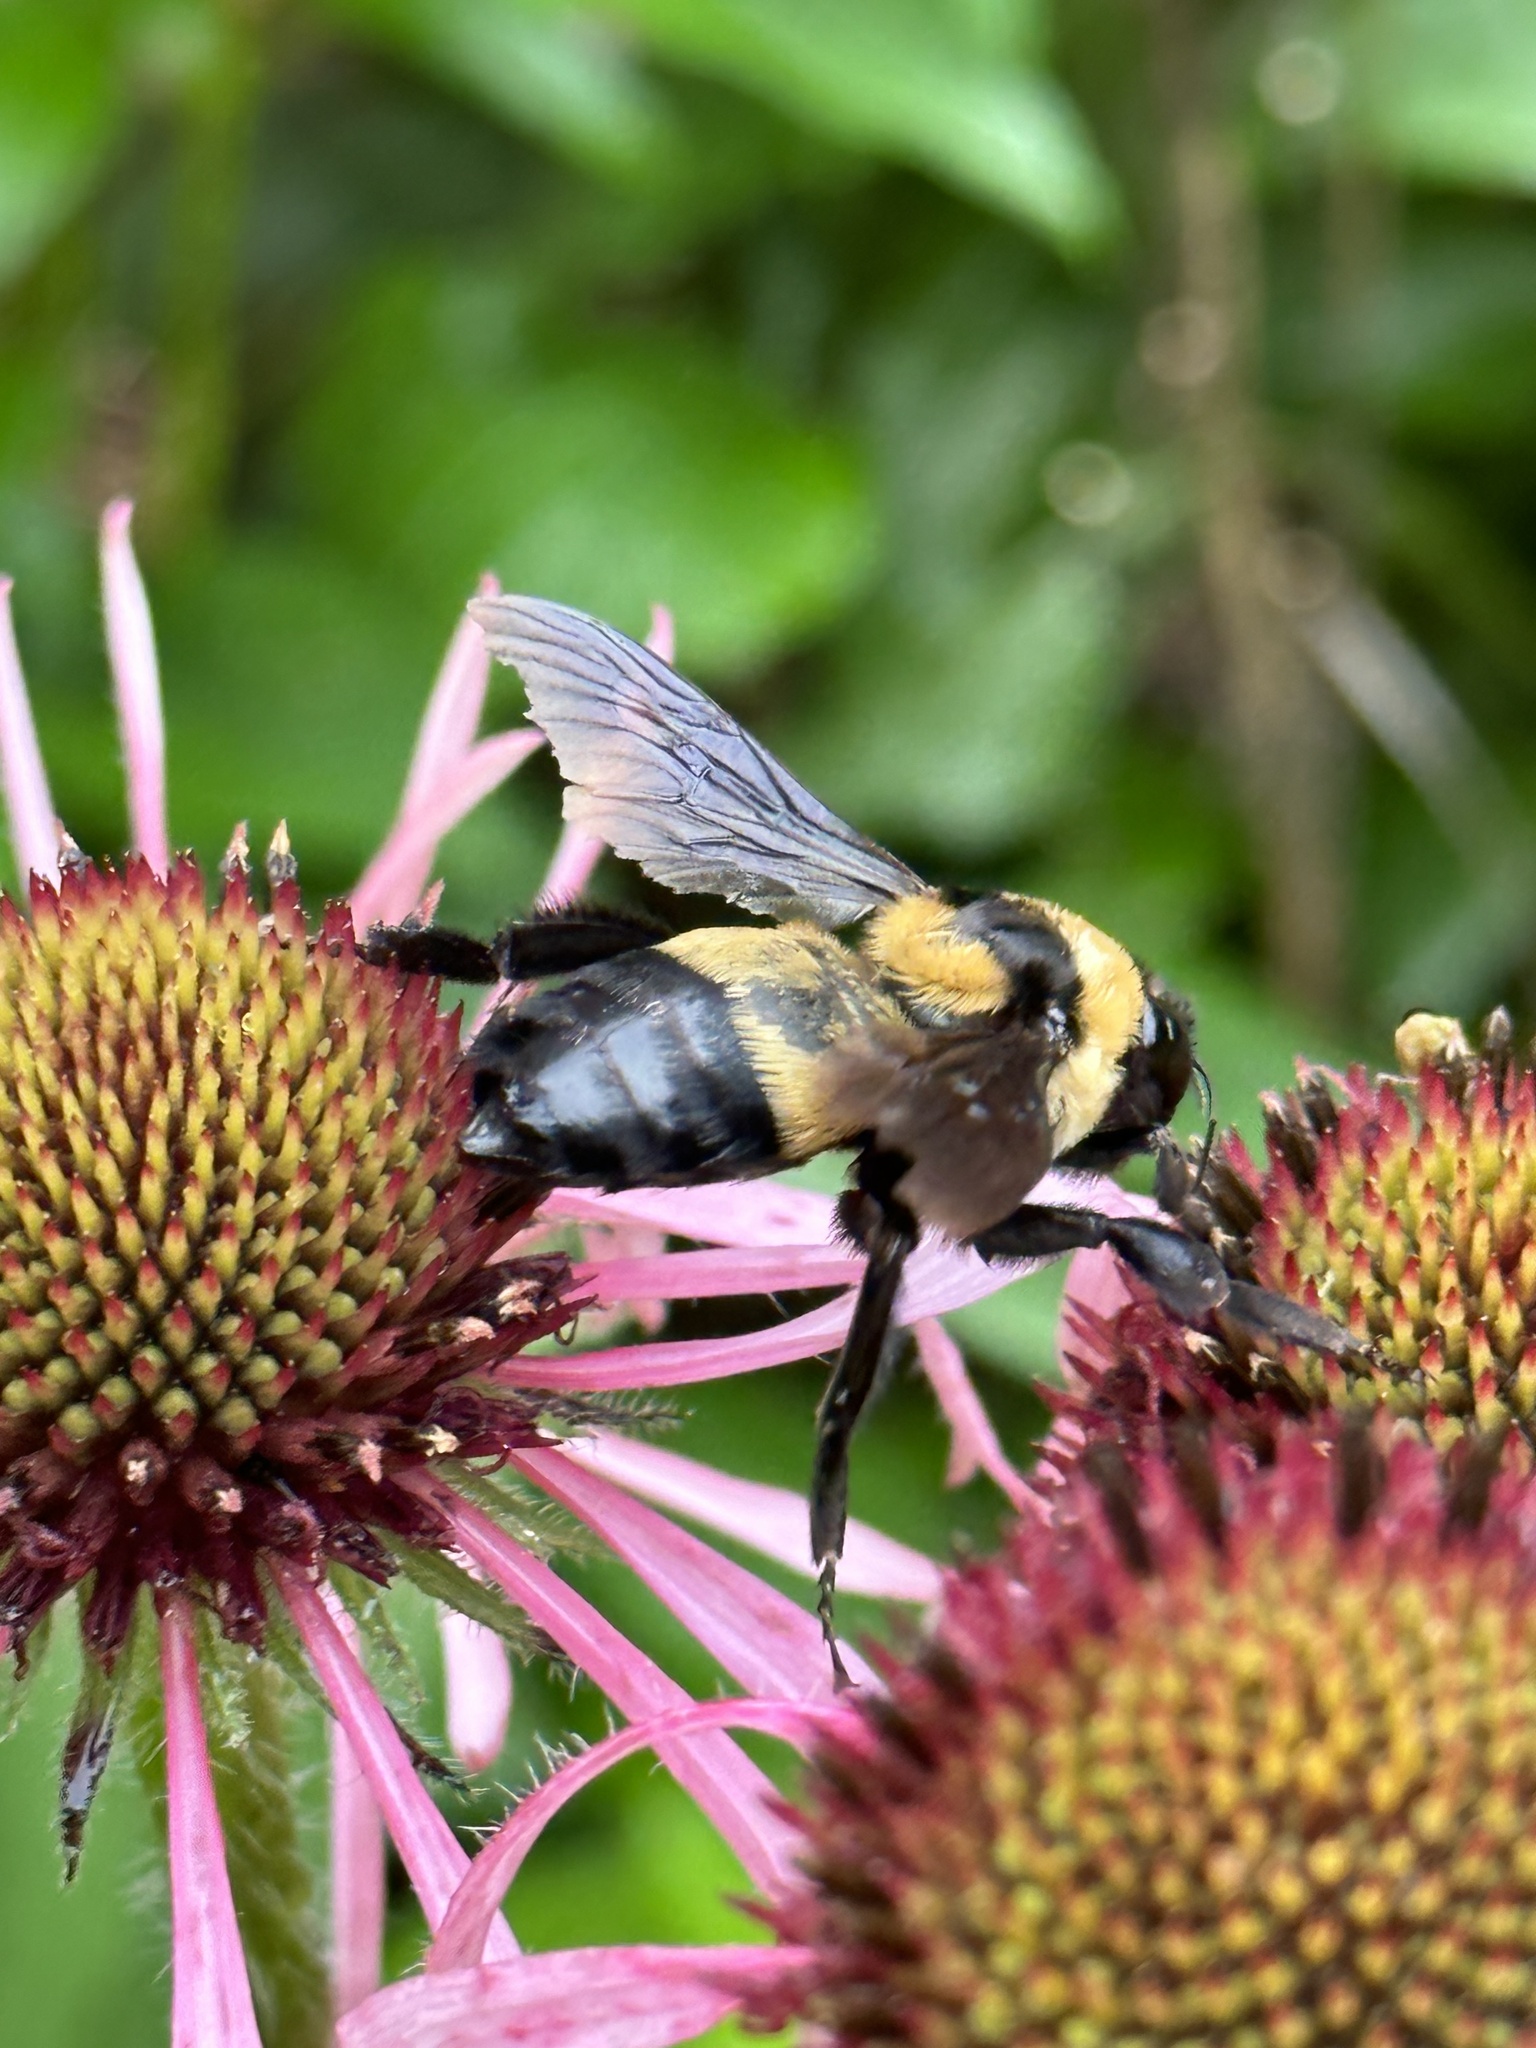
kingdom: Animalia
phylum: Arthropoda
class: Insecta
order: Hymenoptera
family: Apidae
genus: Bombus
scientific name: Bombus fraternus
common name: Southern plains bumble bee
